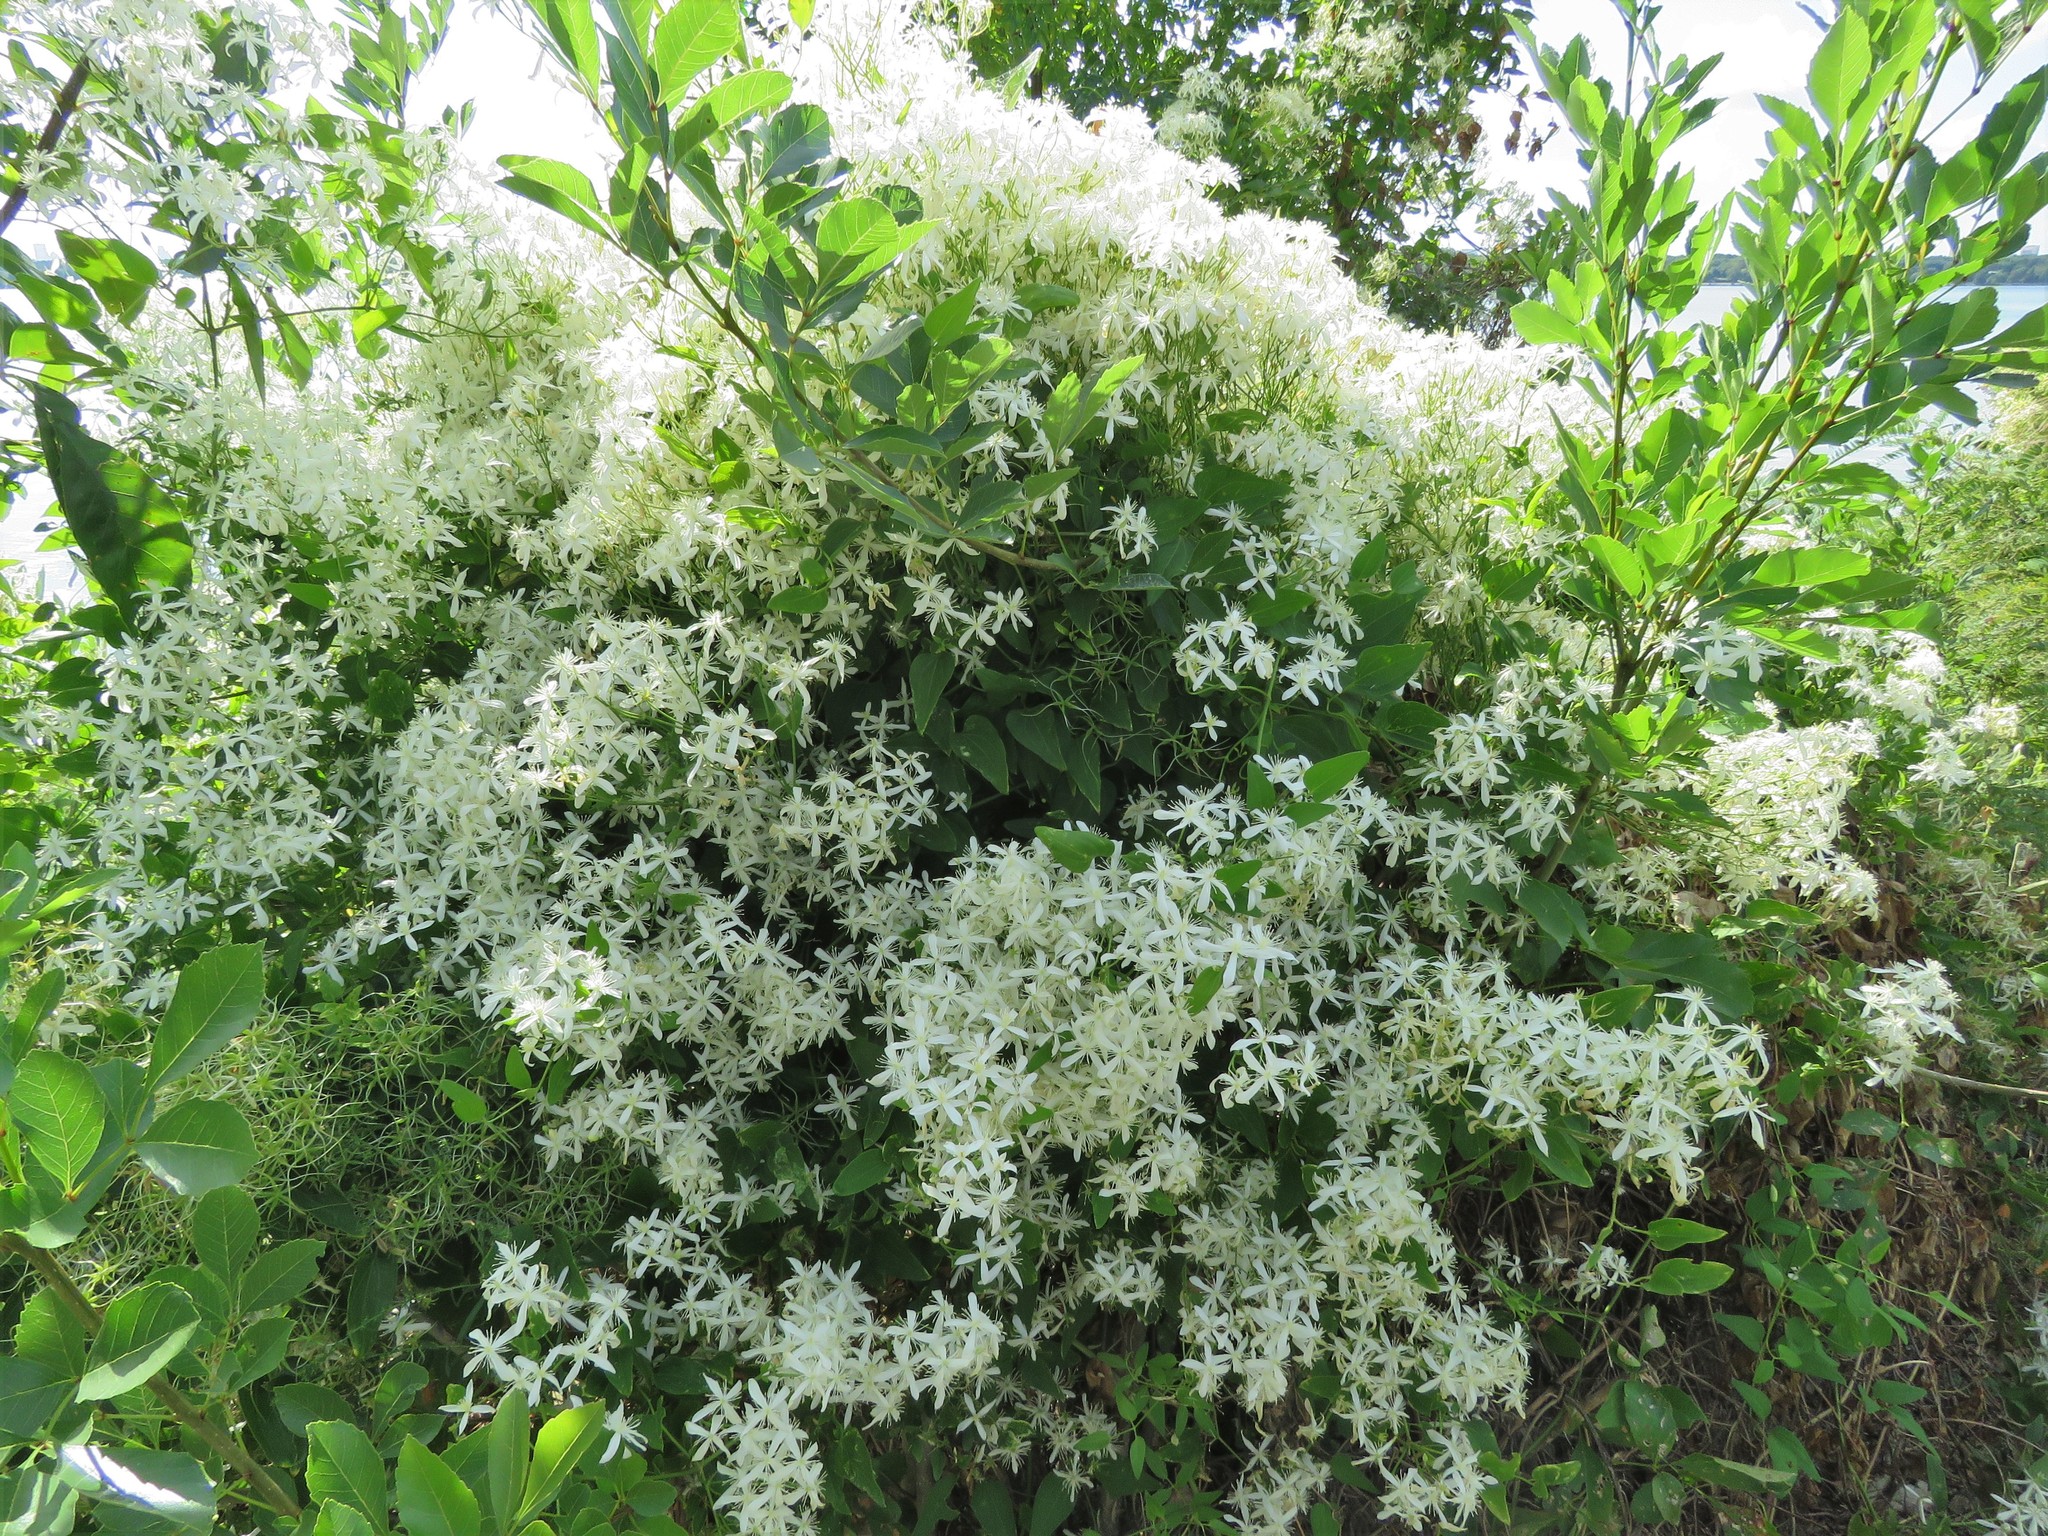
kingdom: Plantae
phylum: Tracheophyta
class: Magnoliopsida
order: Ranunculales
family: Ranunculaceae
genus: Clematis
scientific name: Clematis terniflora
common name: Sweet autumn clematis
